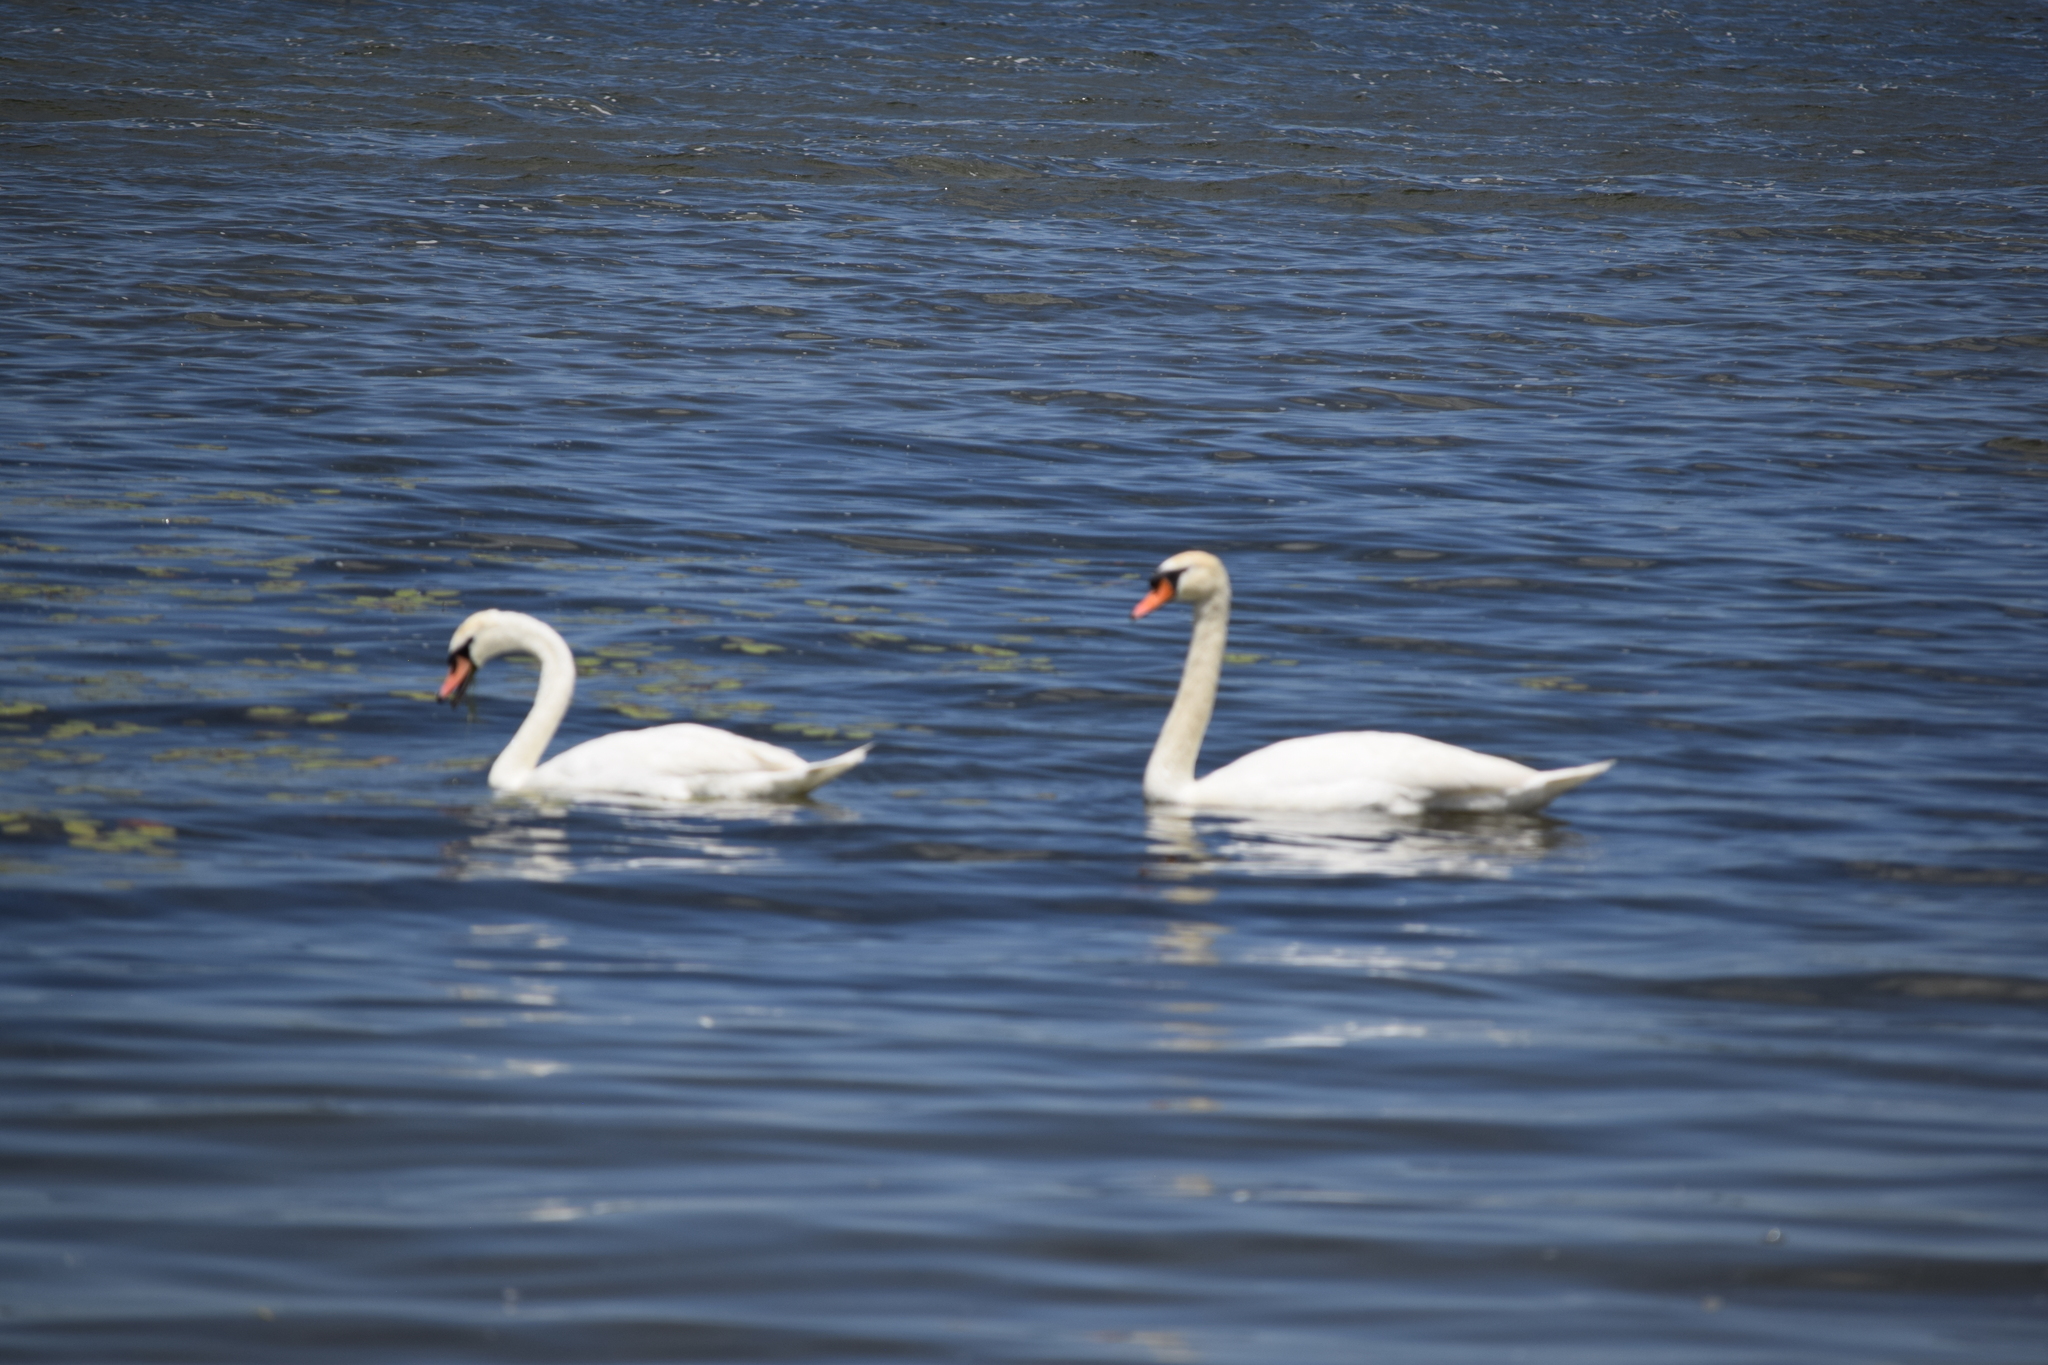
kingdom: Animalia
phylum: Chordata
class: Aves
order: Anseriformes
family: Anatidae
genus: Cygnus
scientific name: Cygnus olor
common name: Mute swan
